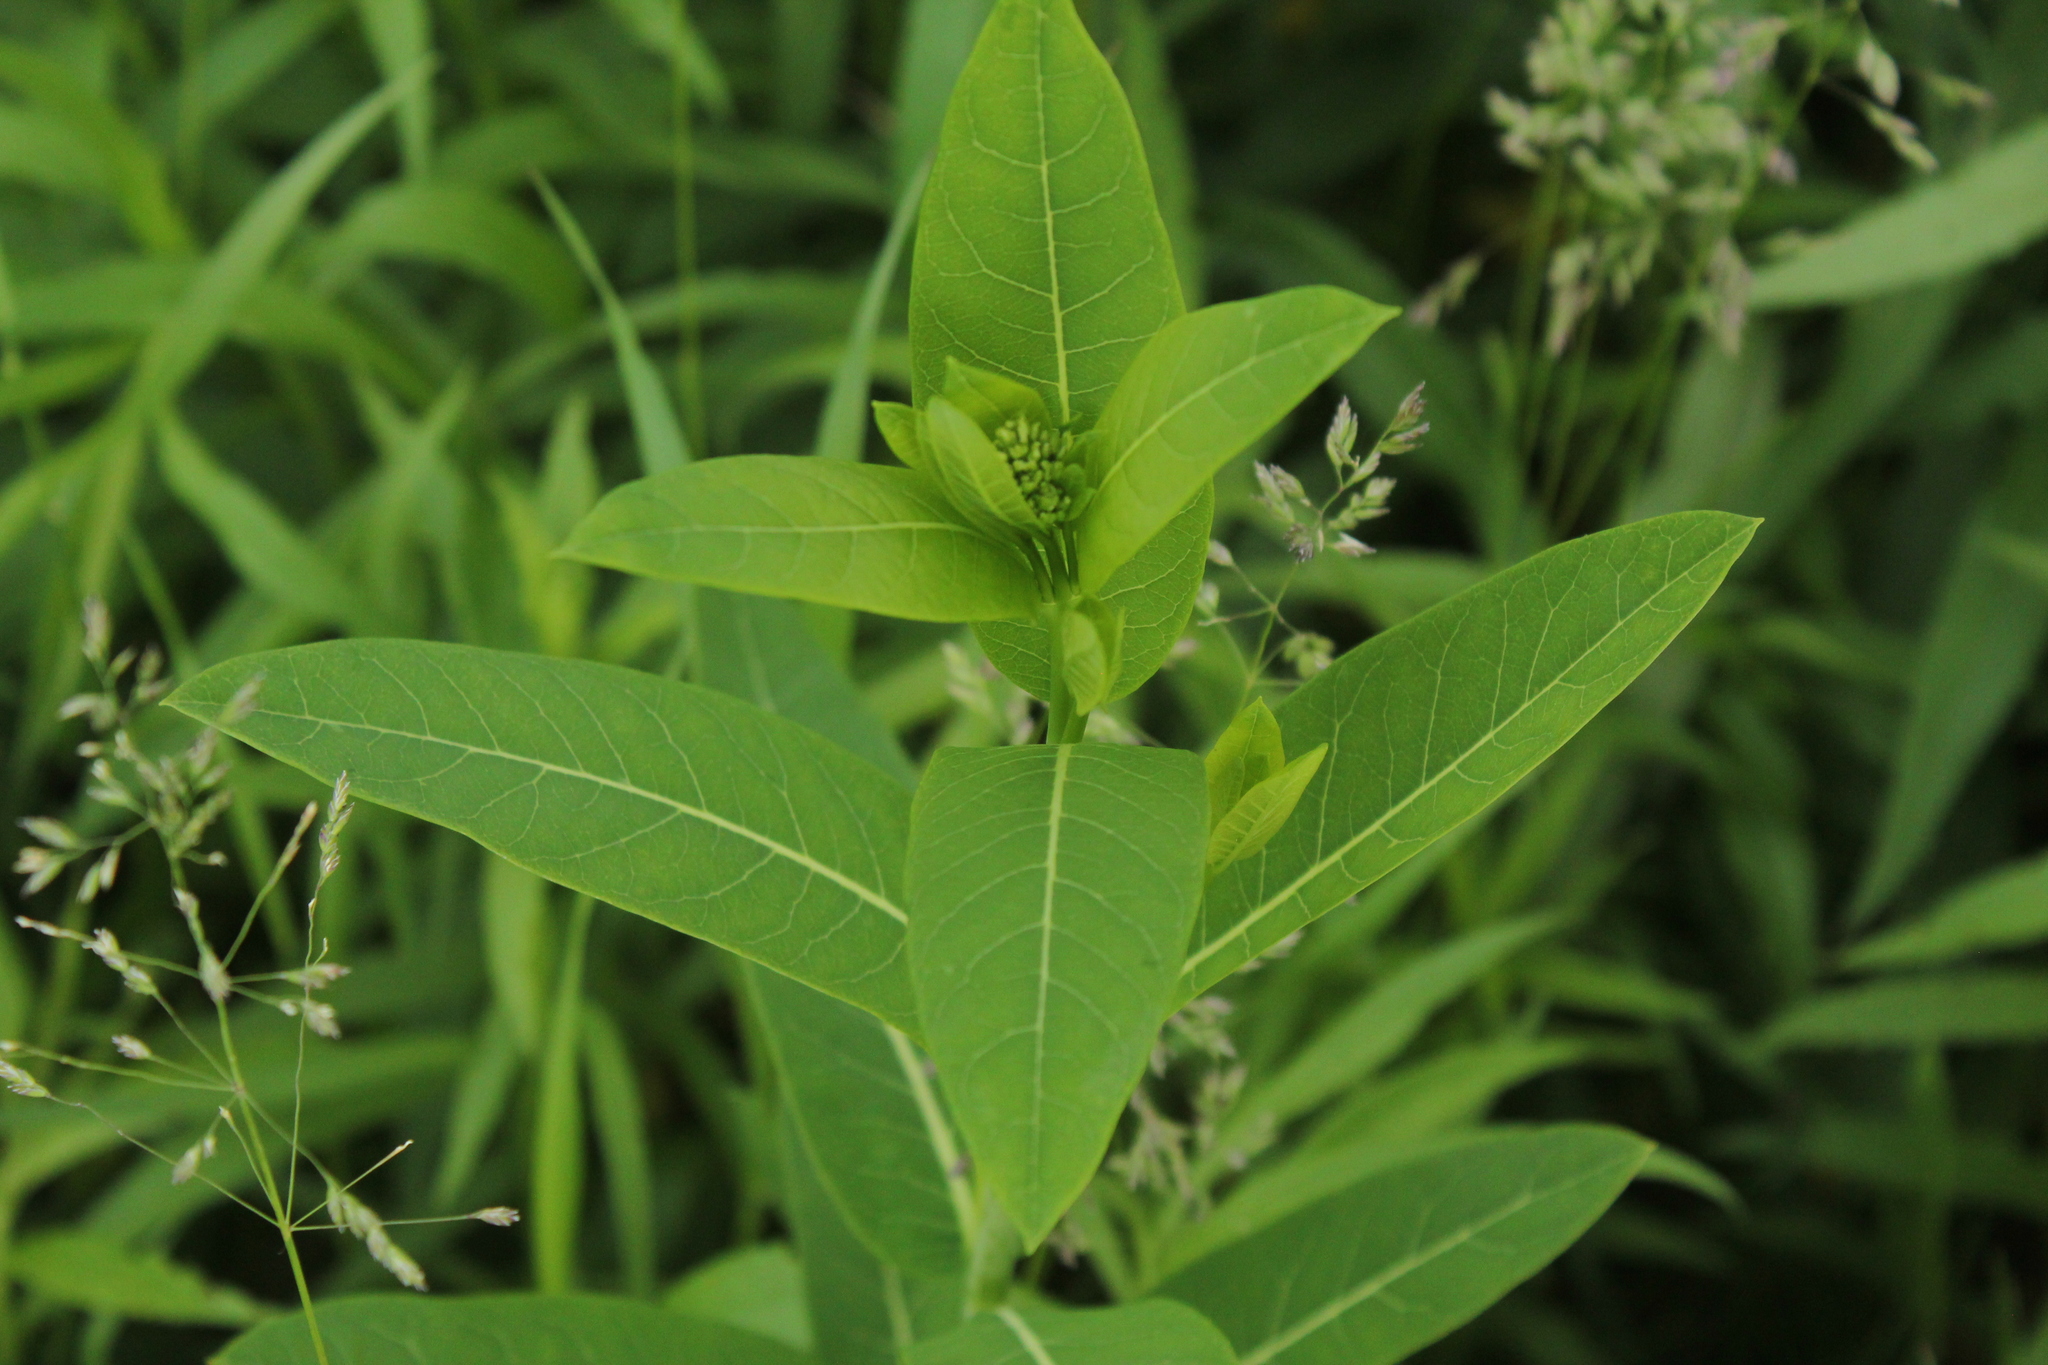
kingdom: Plantae
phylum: Tracheophyta
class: Magnoliopsida
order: Gentianales
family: Apocynaceae
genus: Apocynum
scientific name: Apocynum cannabinum
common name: Hemp dogbane
